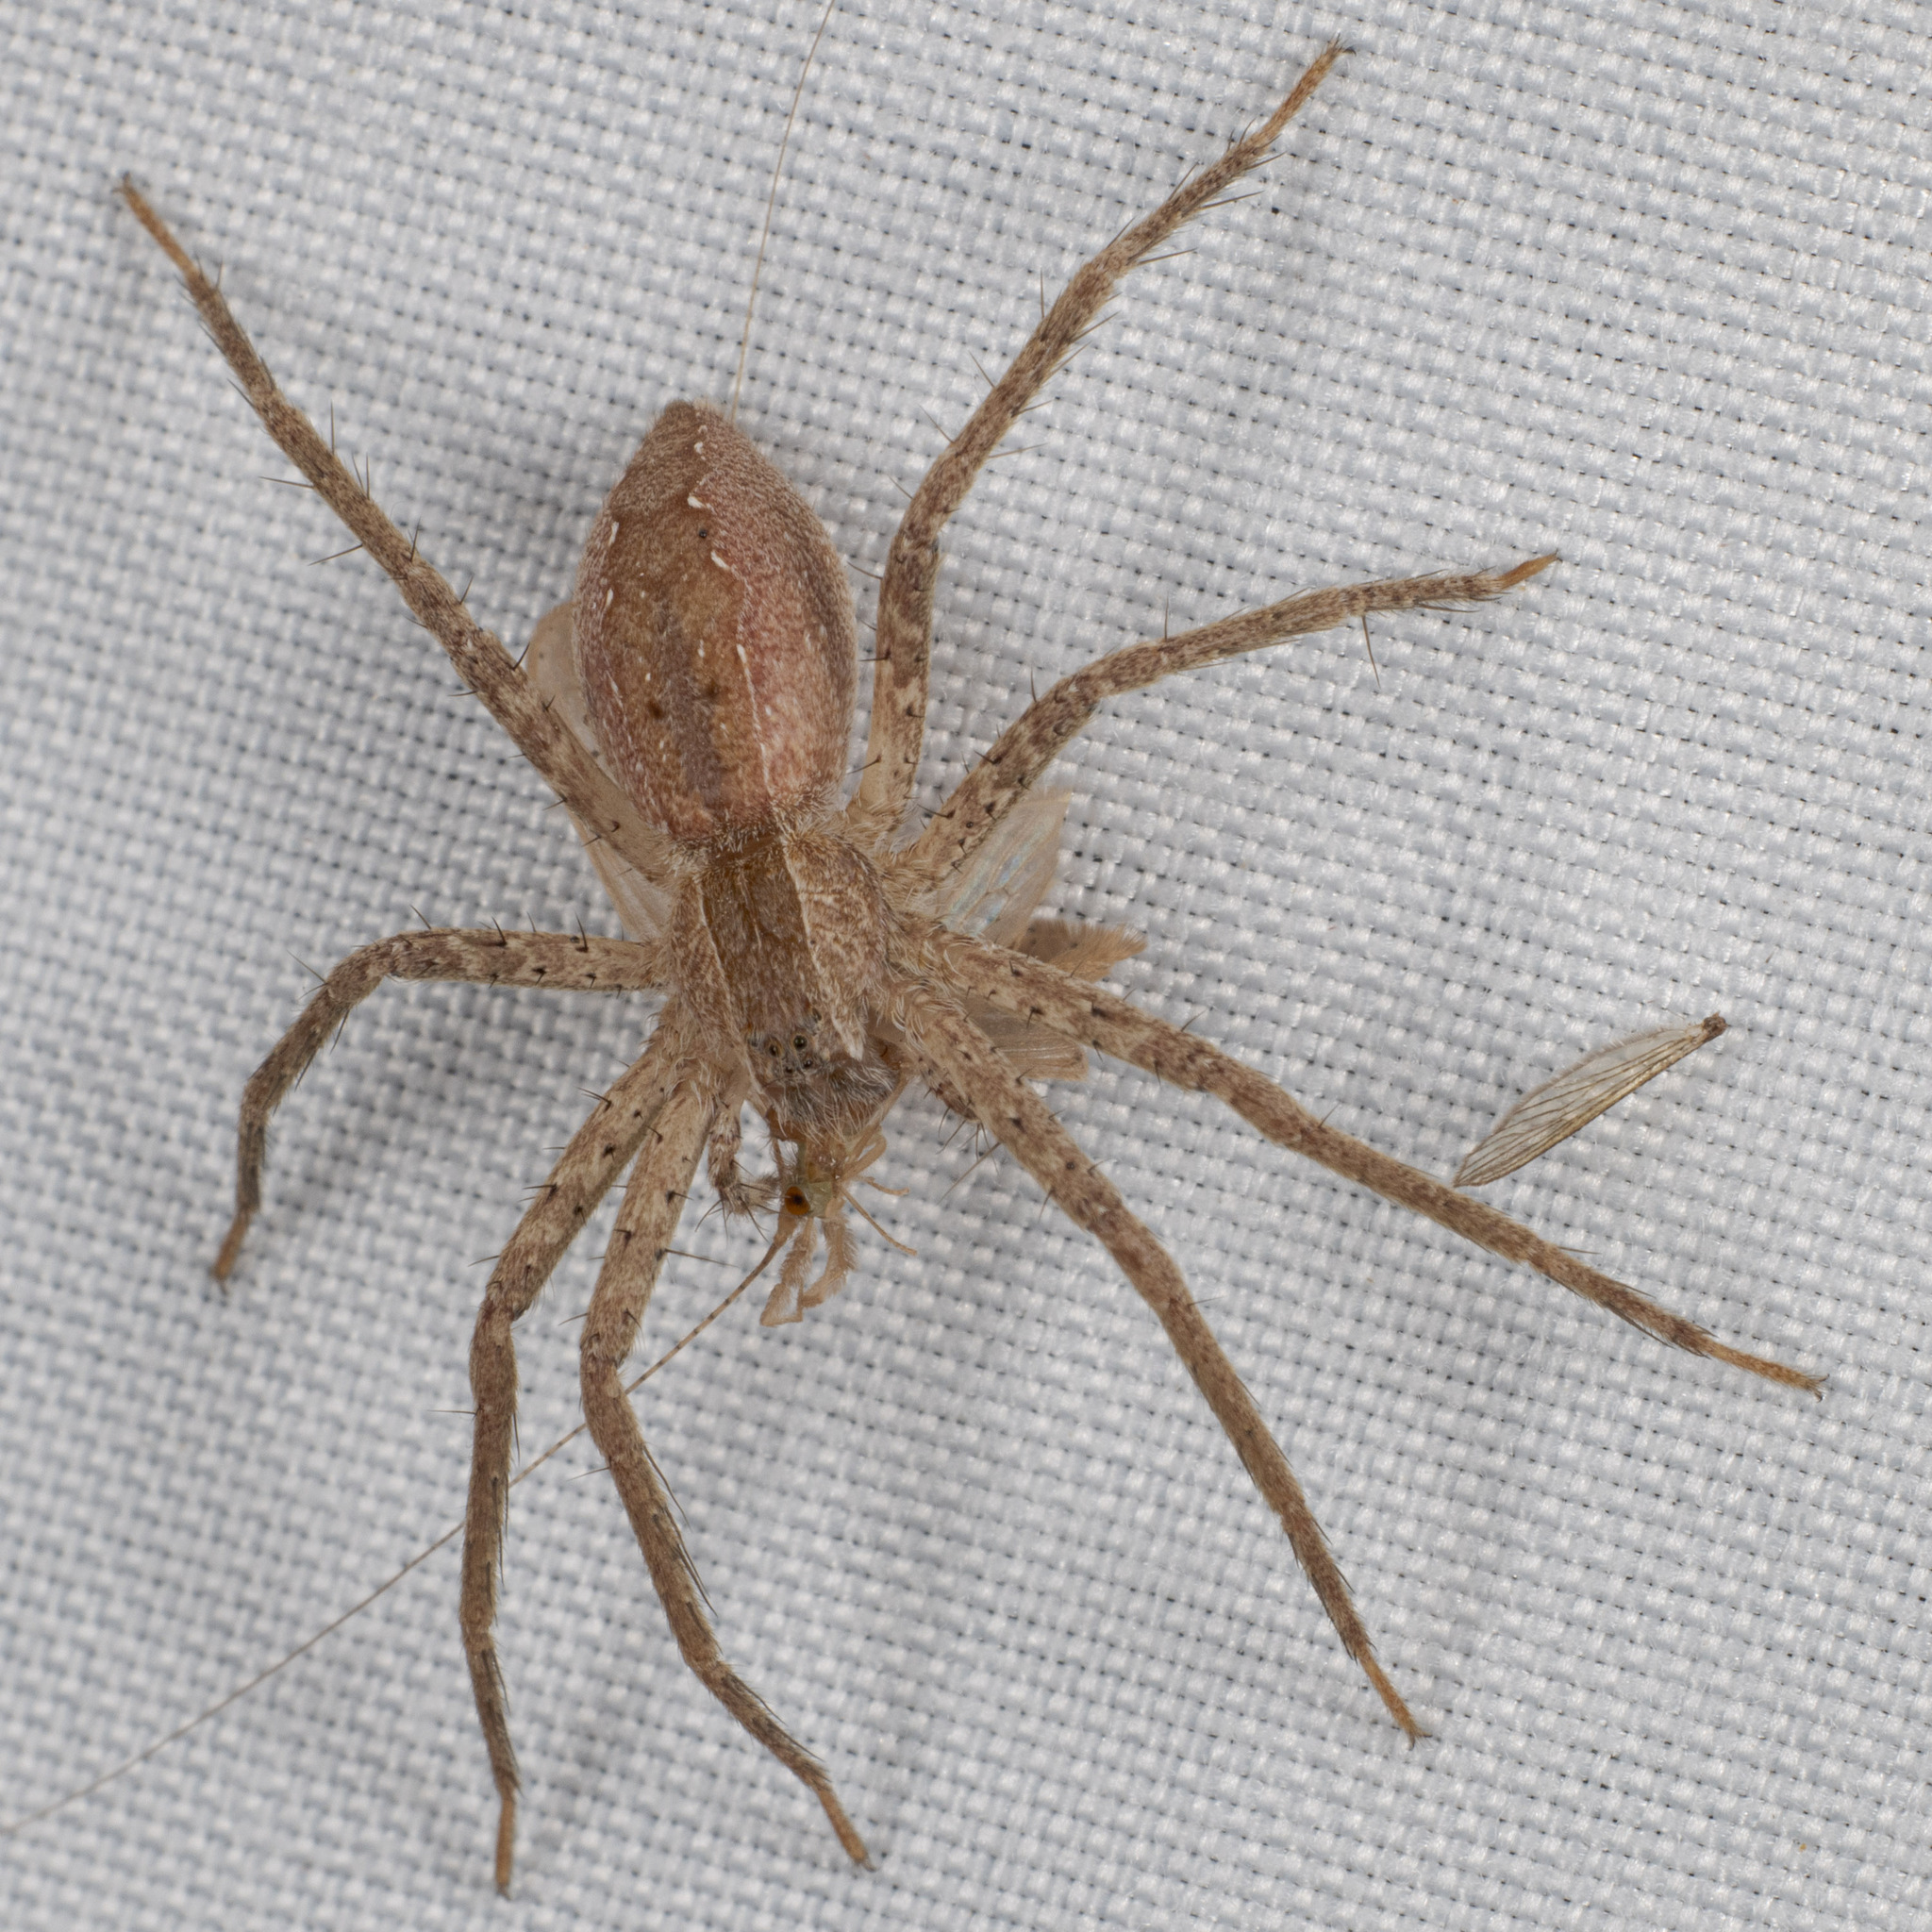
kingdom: Animalia
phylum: Arthropoda
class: Arachnida
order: Araneae
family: Pisauridae
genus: Pisaurina
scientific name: Pisaurina mira
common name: American nursery web spider
